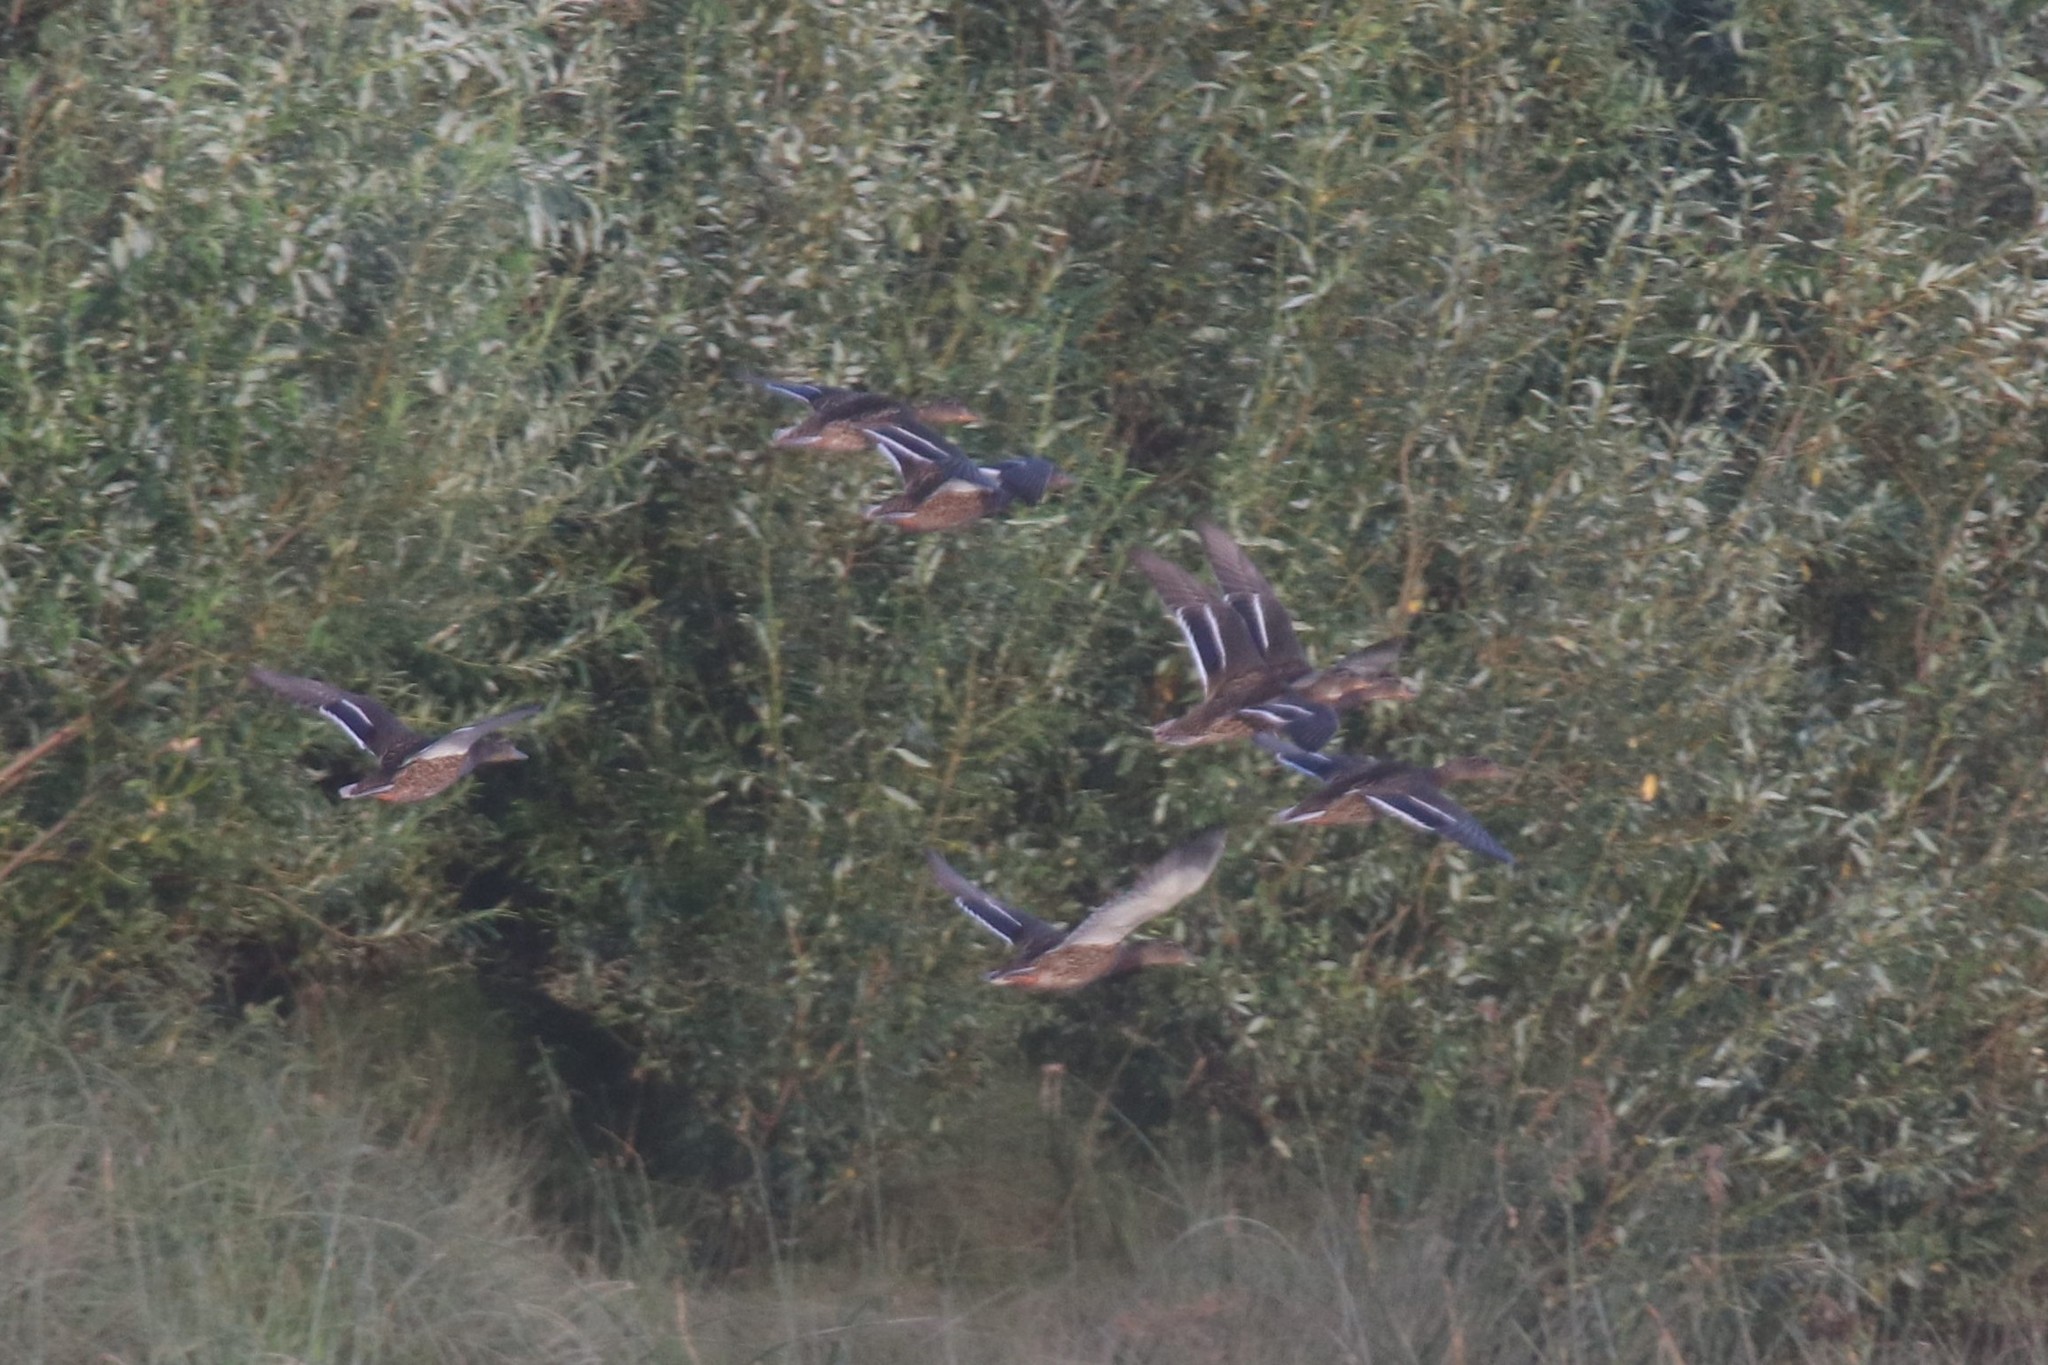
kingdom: Animalia
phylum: Chordata
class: Aves
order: Anseriformes
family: Anatidae
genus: Anas
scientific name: Anas platyrhynchos
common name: Mallard
